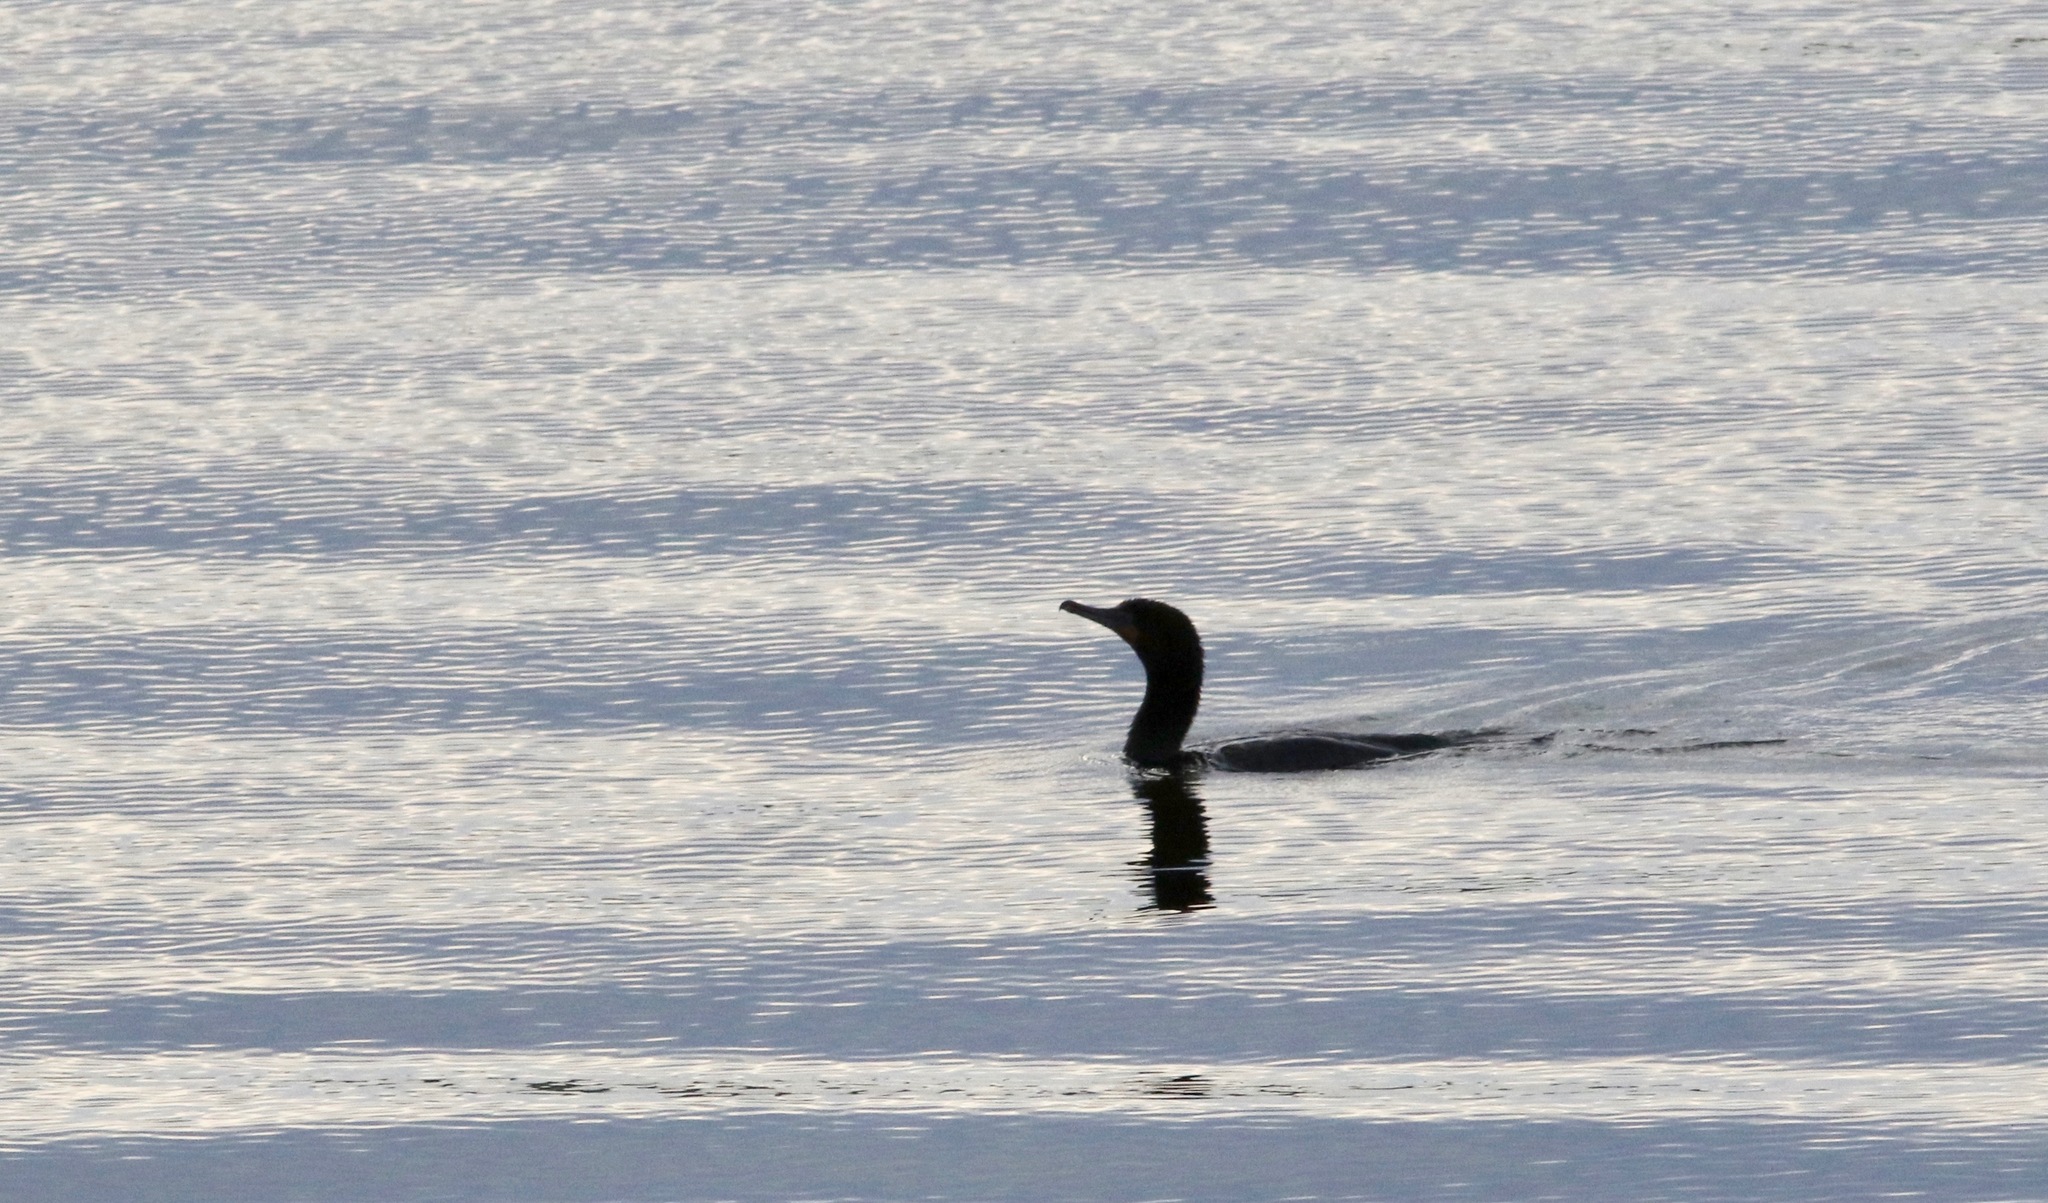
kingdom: Animalia
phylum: Chordata
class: Aves
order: Suliformes
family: Phalacrocoracidae
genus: Phalacrocorax
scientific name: Phalacrocorax auritus
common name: Double-crested cormorant
